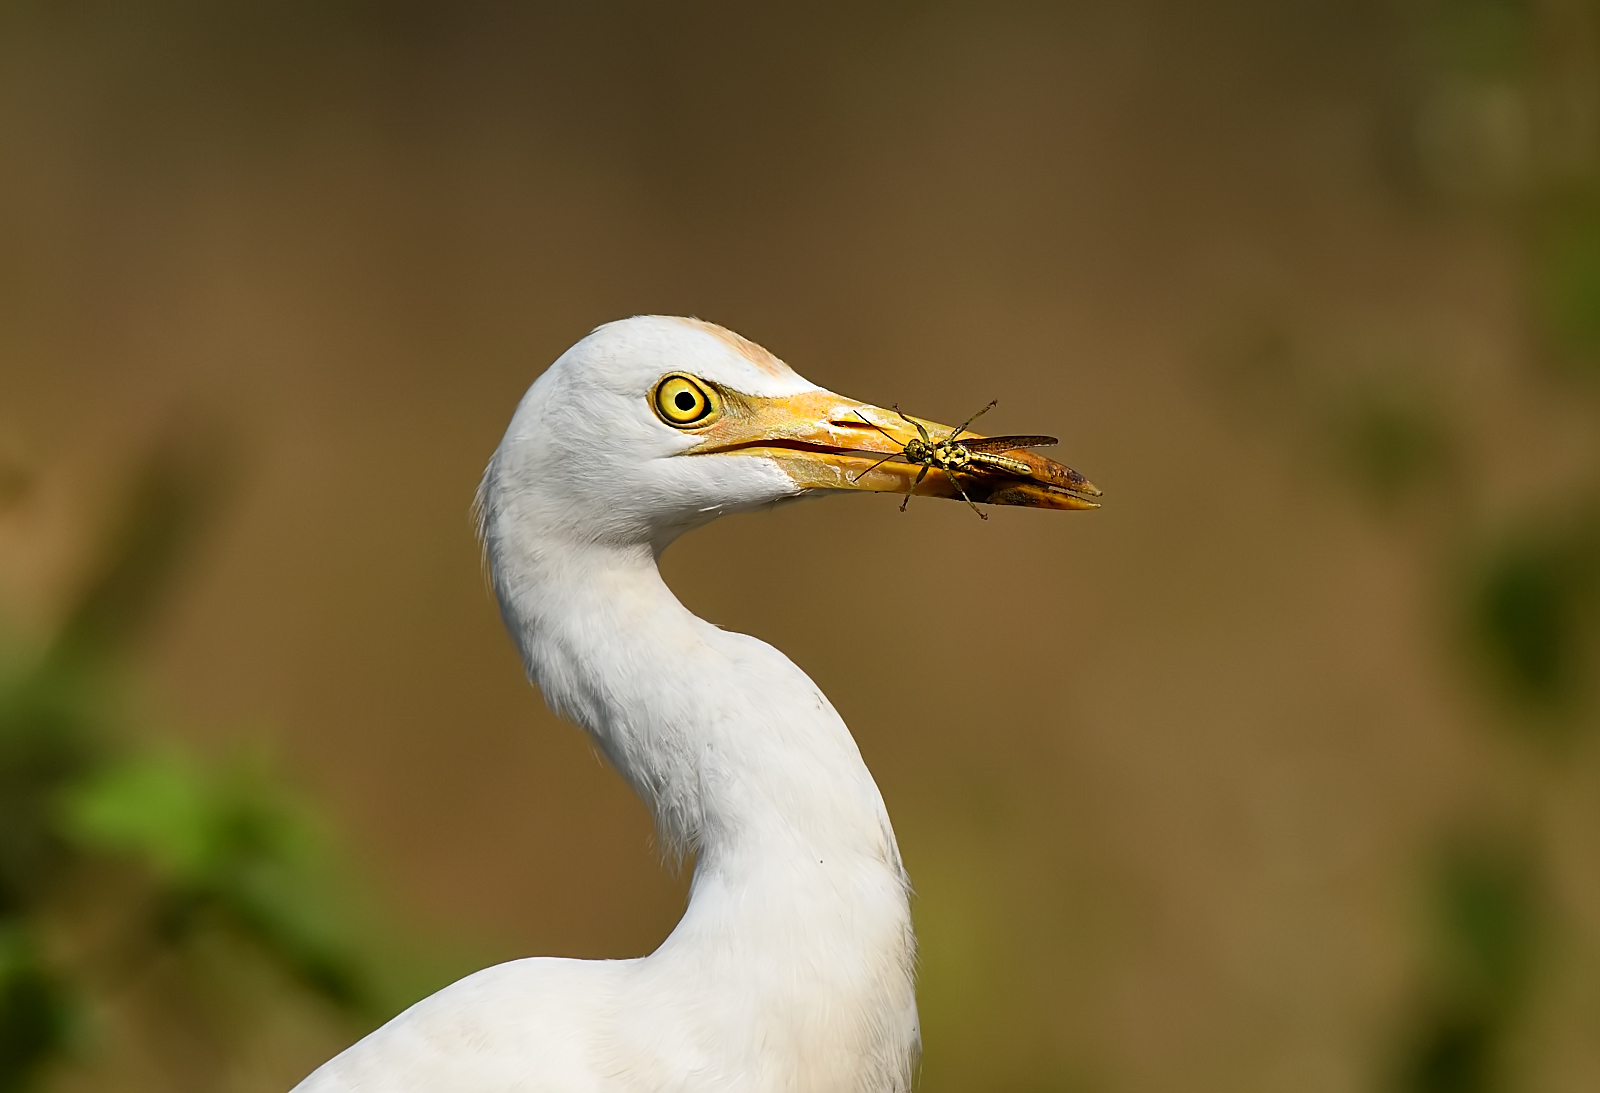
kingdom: Animalia
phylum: Chordata
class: Aves
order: Pelecaniformes
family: Ardeidae
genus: Bubulcus
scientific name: Bubulcus coromandus
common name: Eastern cattle egret
